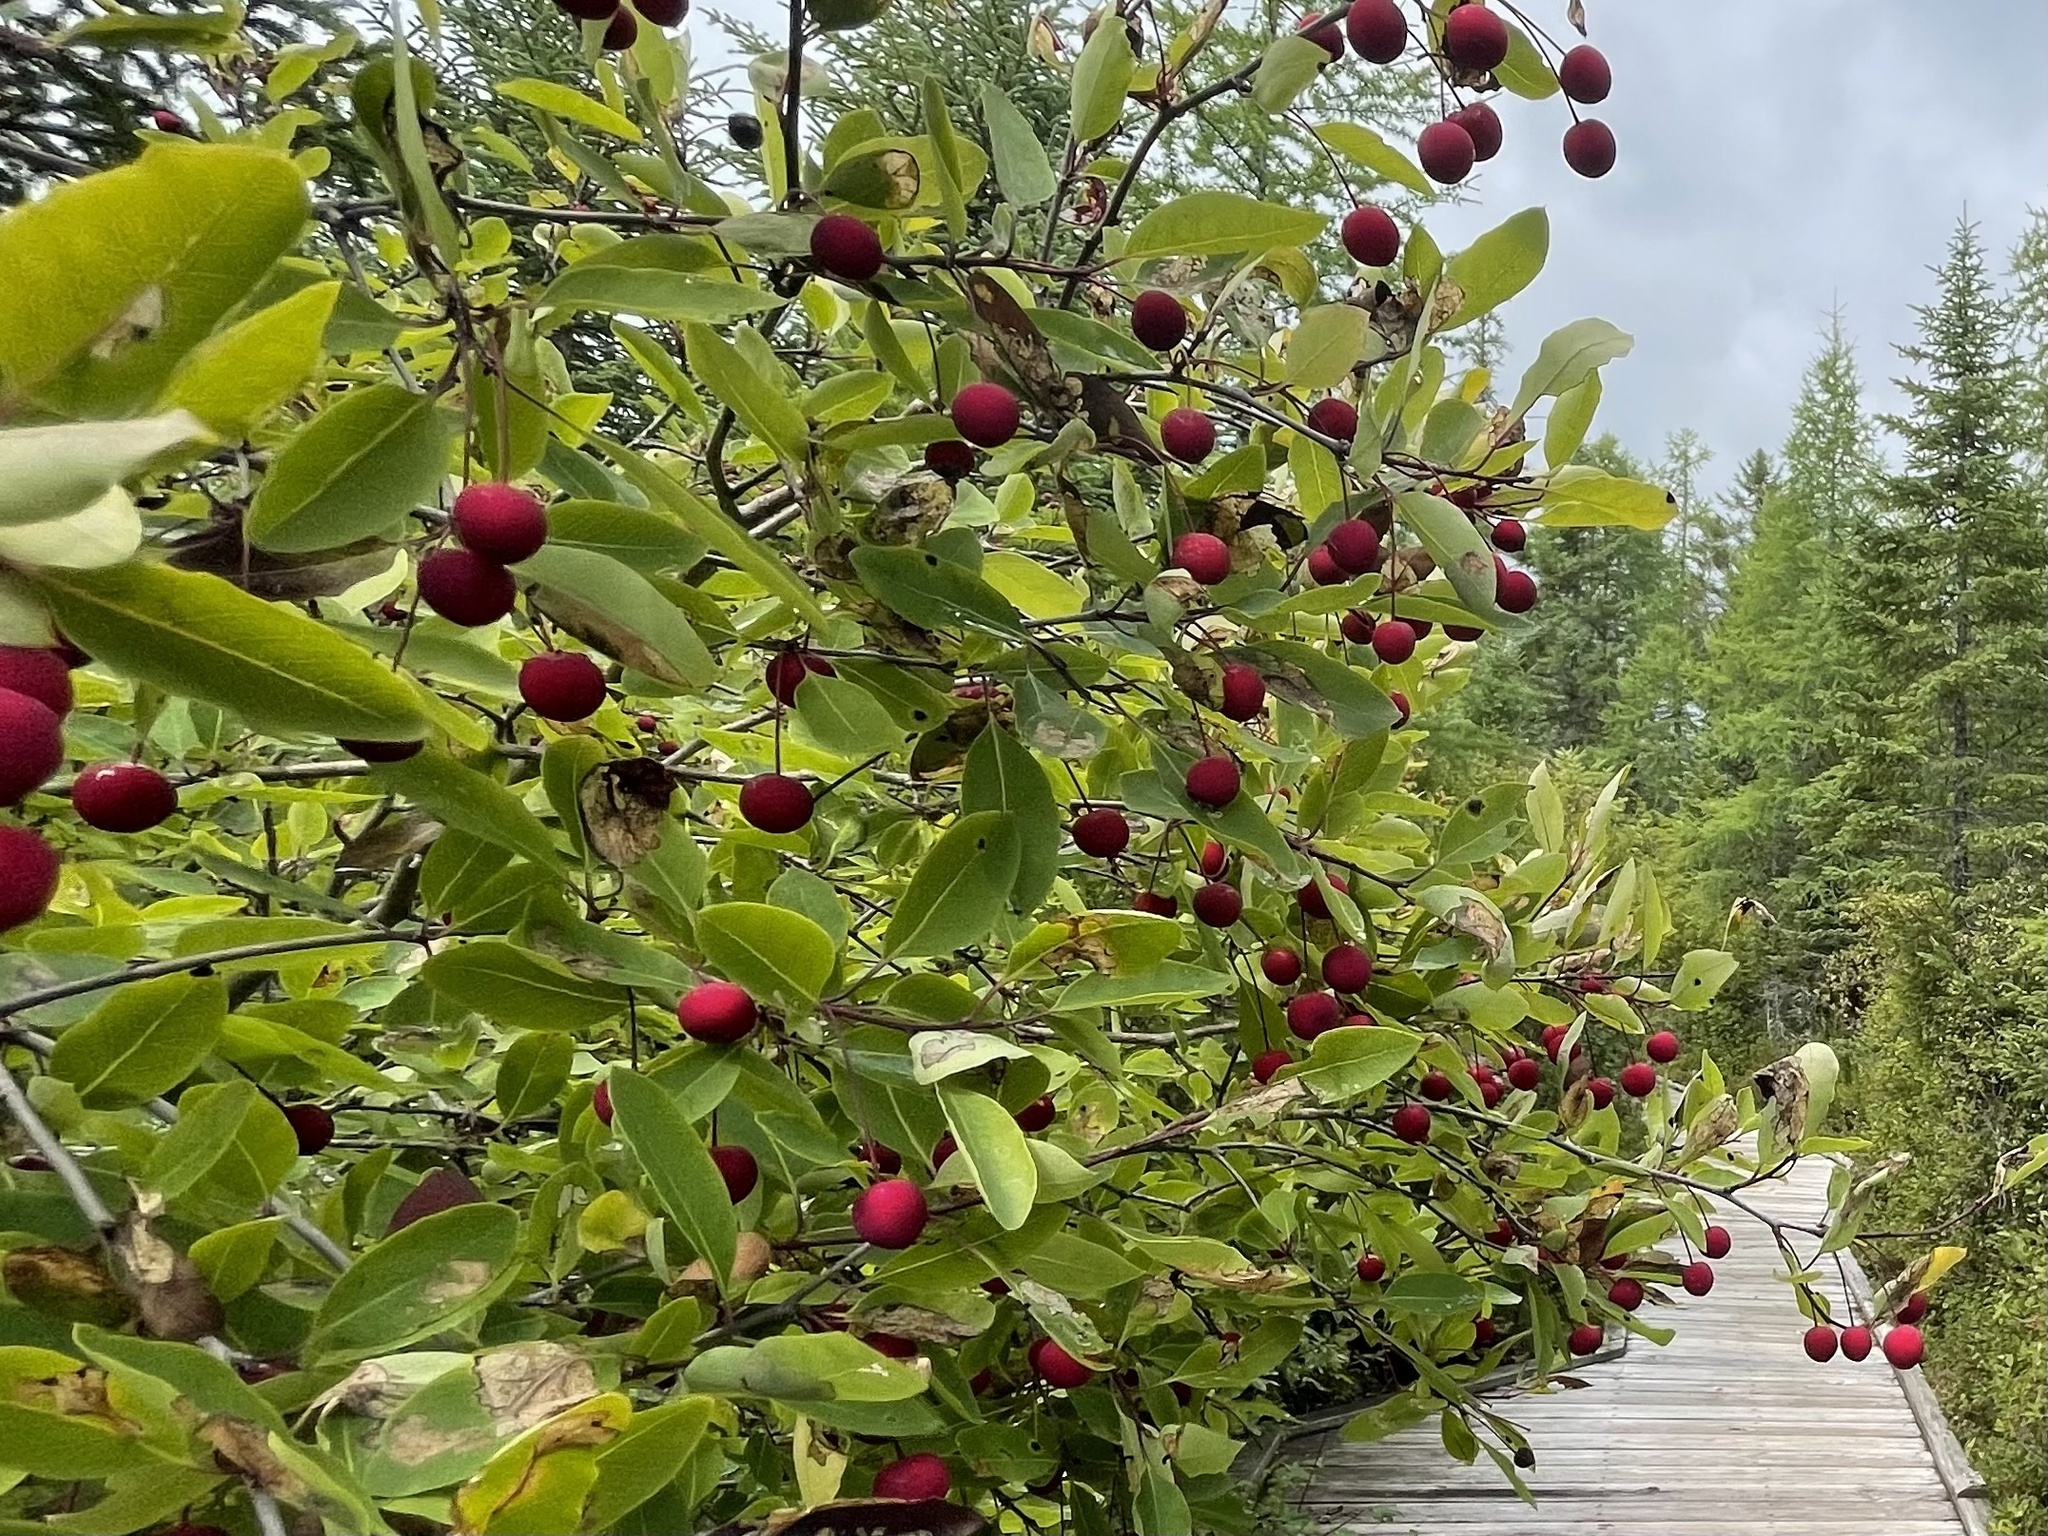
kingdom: Plantae
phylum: Tracheophyta
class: Magnoliopsida
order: Aquifoliales
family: Aquifoliaceae
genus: Ilex
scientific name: Ilex mucronata
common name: Catberry
